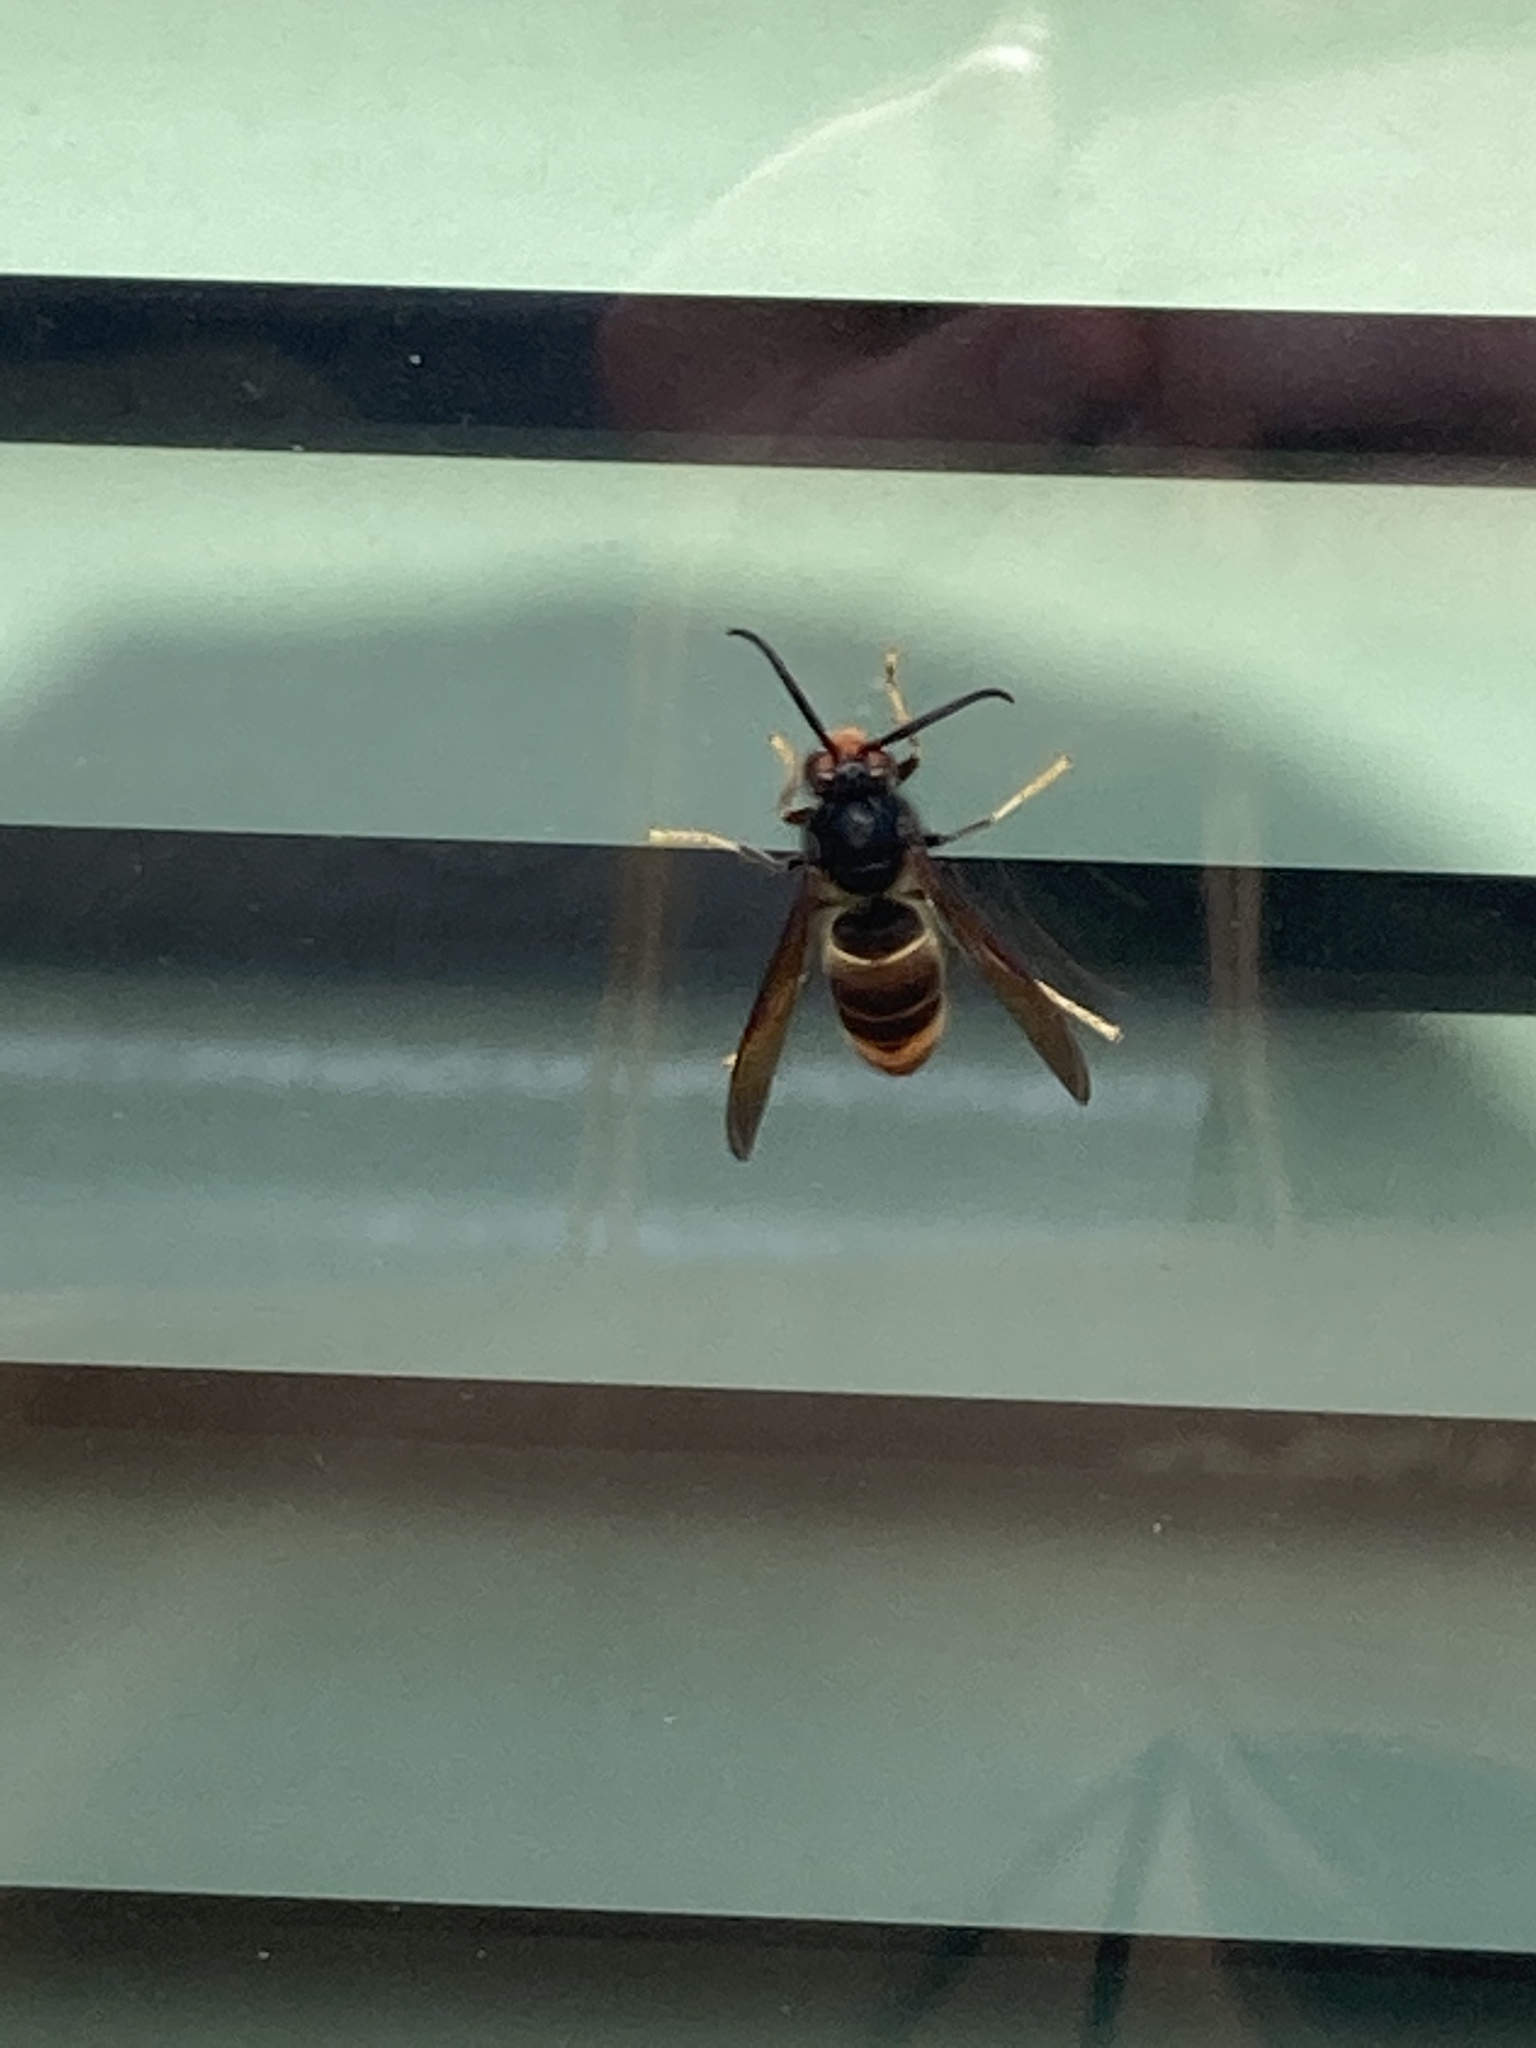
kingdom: Animalia
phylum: Arthropoda
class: Insecta
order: Hymenoptera
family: Vespidae
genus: Vespa
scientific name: Vespa velutina
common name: Asian hornet
